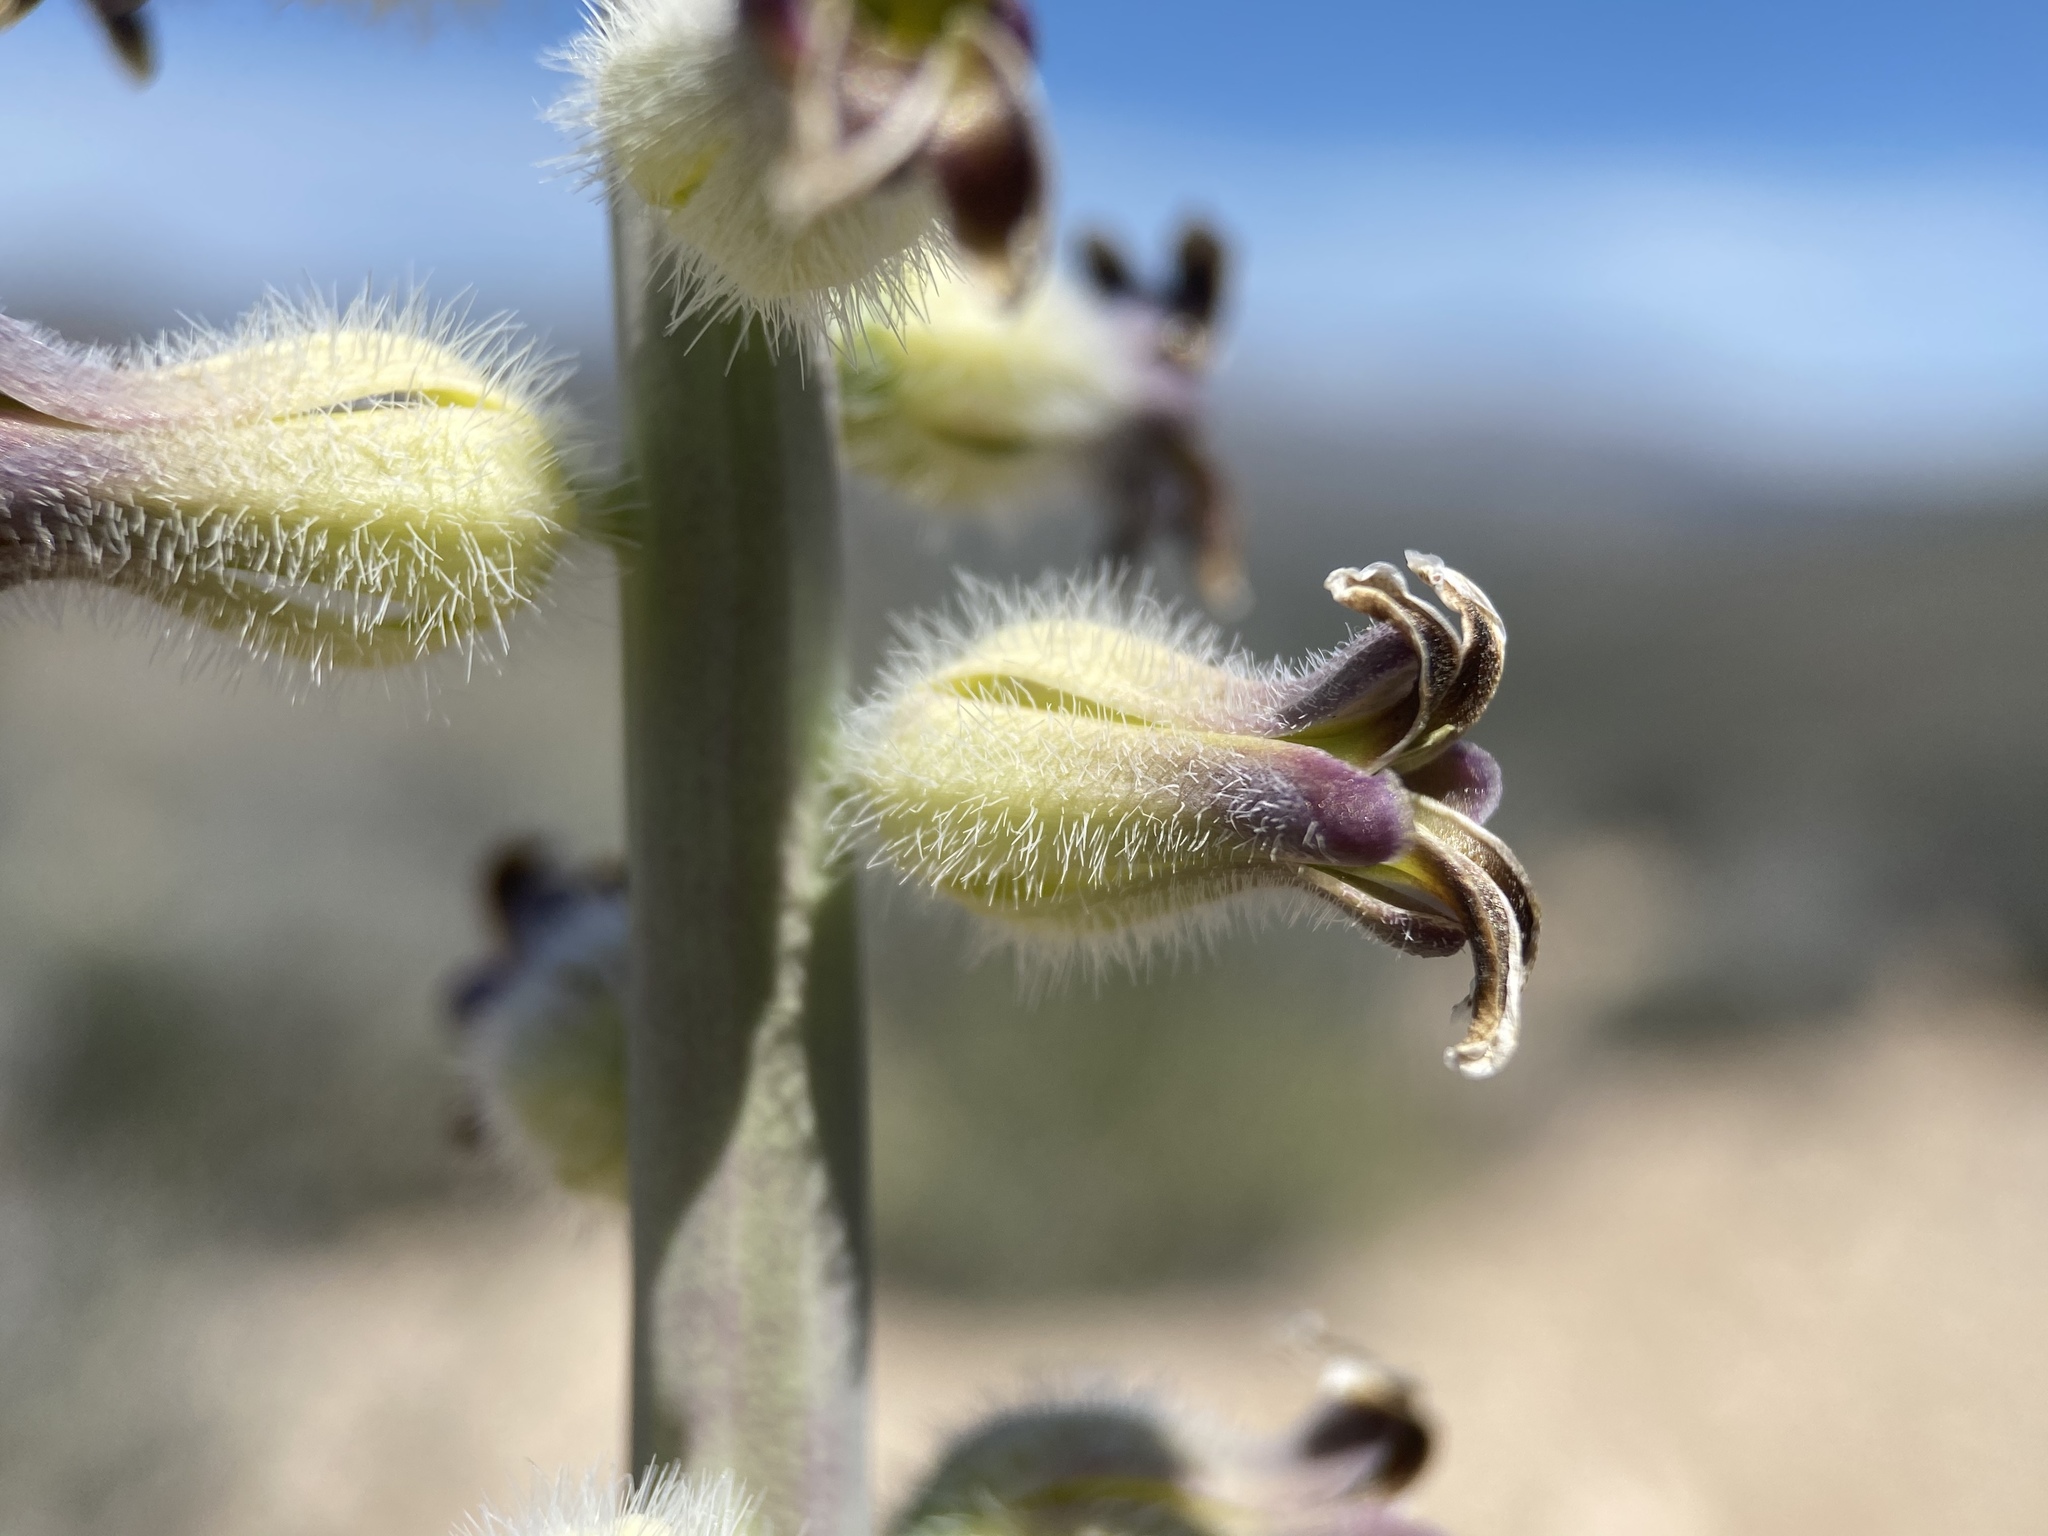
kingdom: Plantae
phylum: Tracheophyta
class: Magnoliopsida
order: Brassicales
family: Brassicaceae
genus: Streptanthus
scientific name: Streptanthus crassicaulis
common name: Thick-stem wild cabbage
